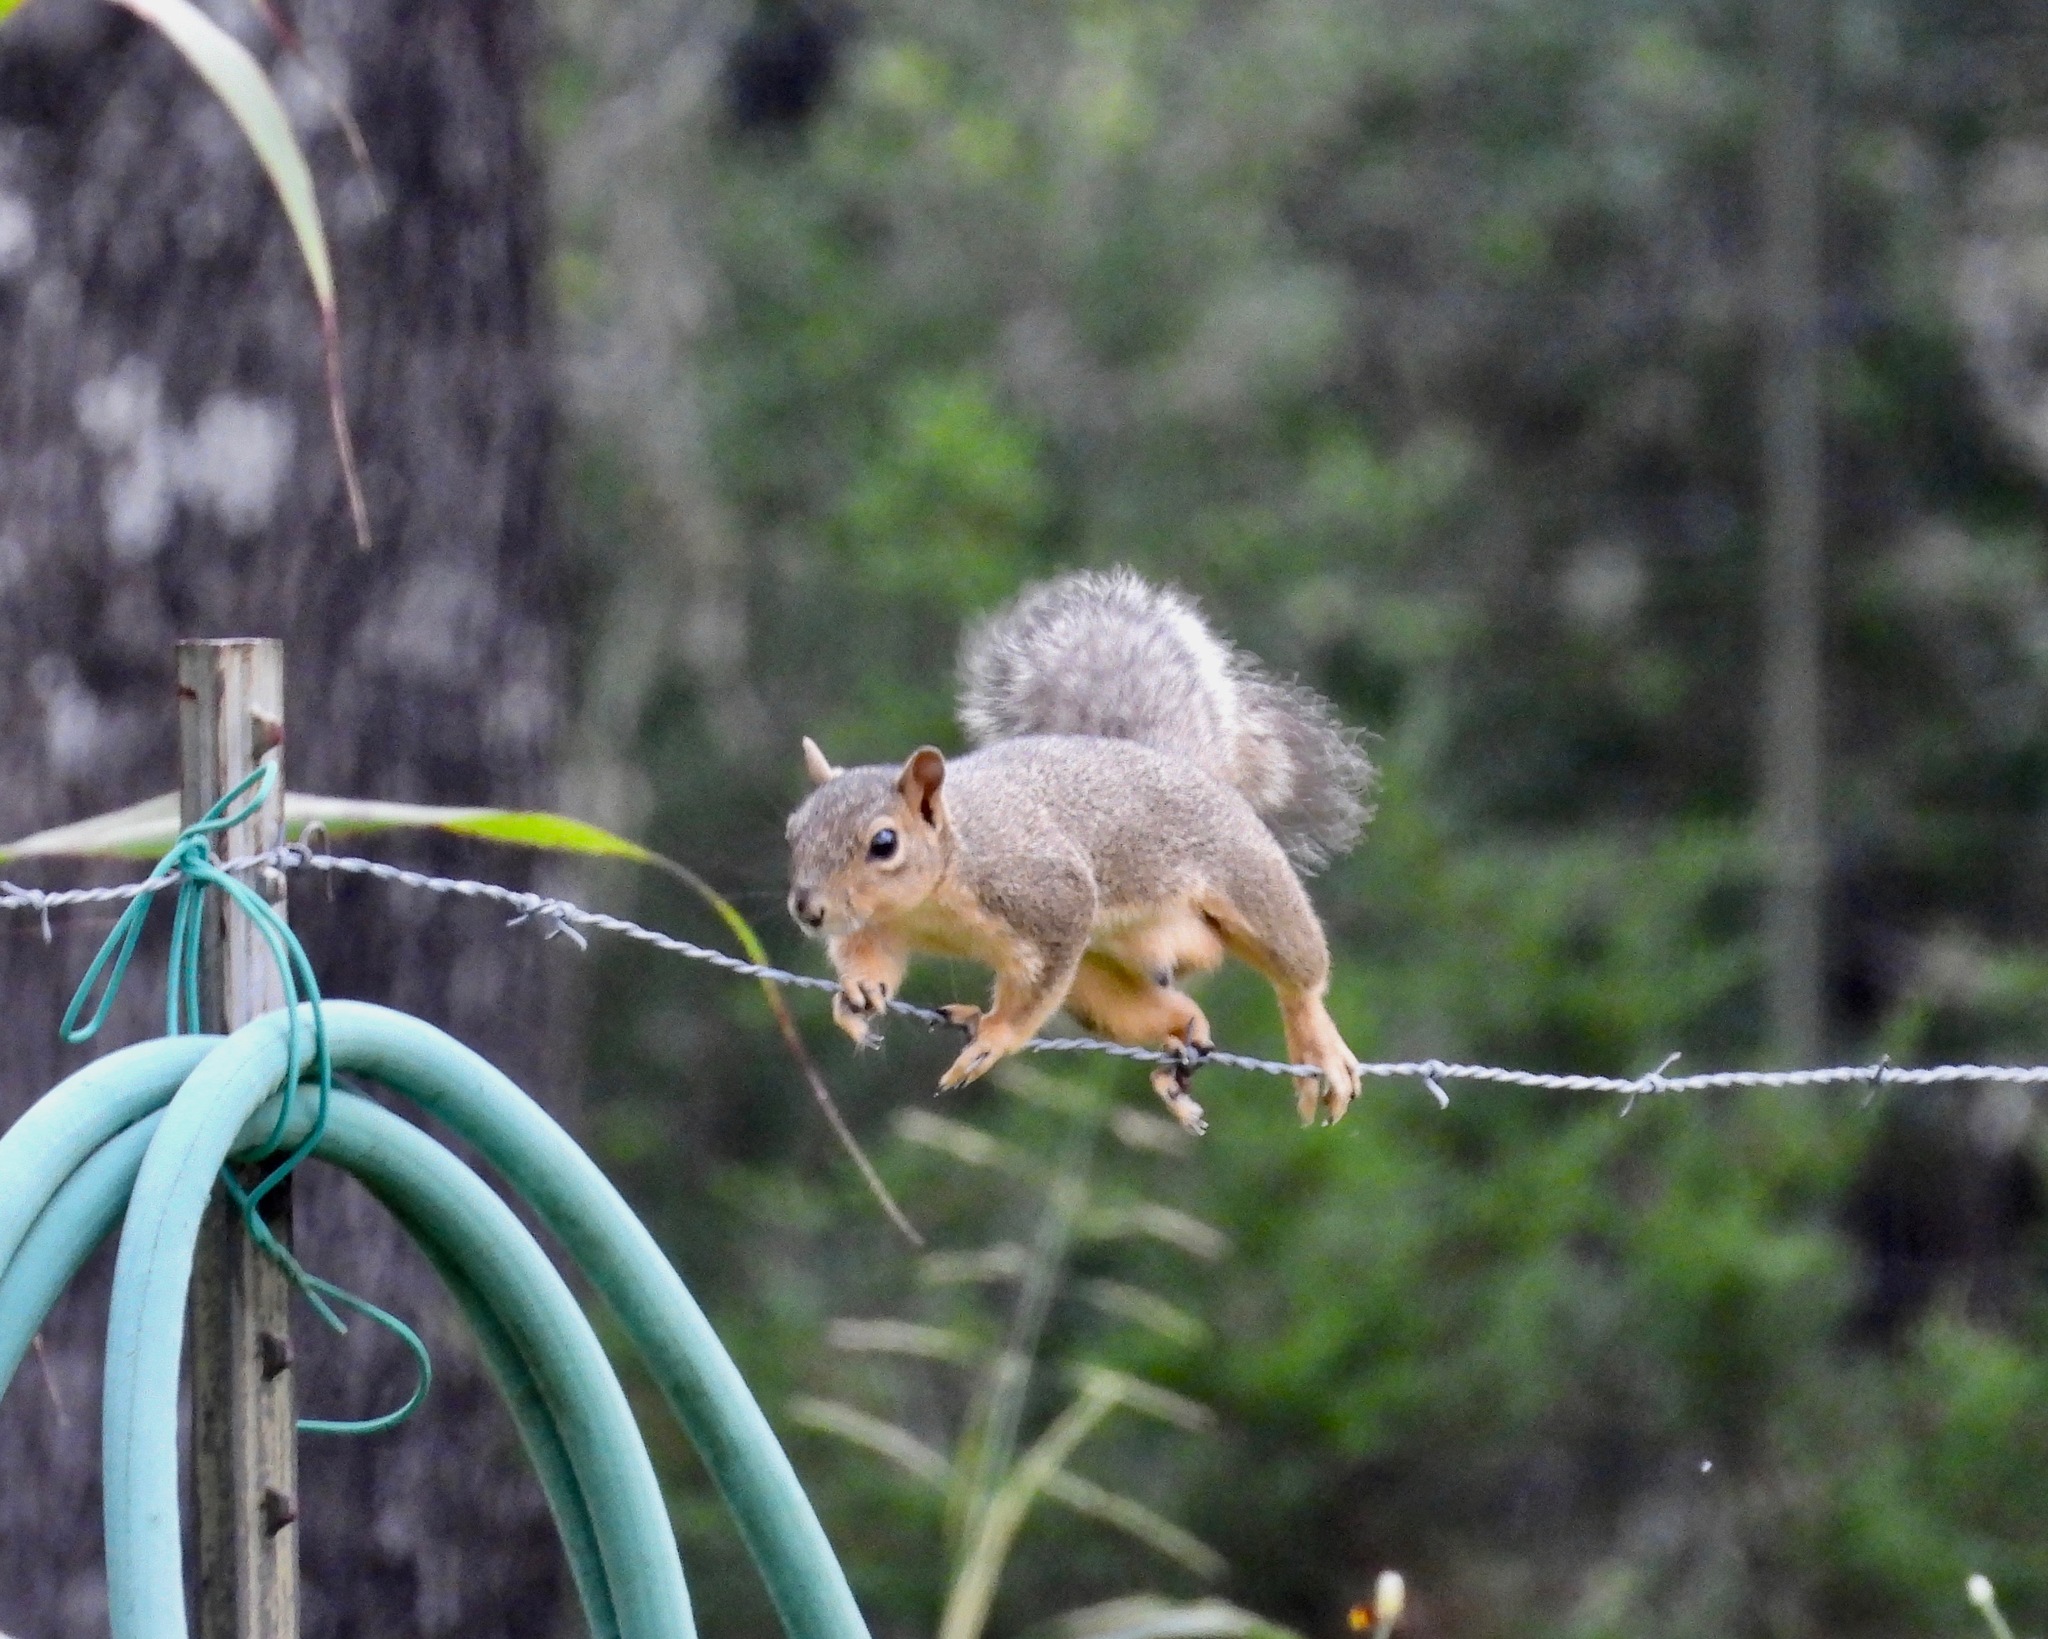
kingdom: Animalia
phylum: Chordata
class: Mammalia
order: Rodentia
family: Sciuridae
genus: Sciurus
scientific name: Sciurus niger
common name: Fox squirrel
